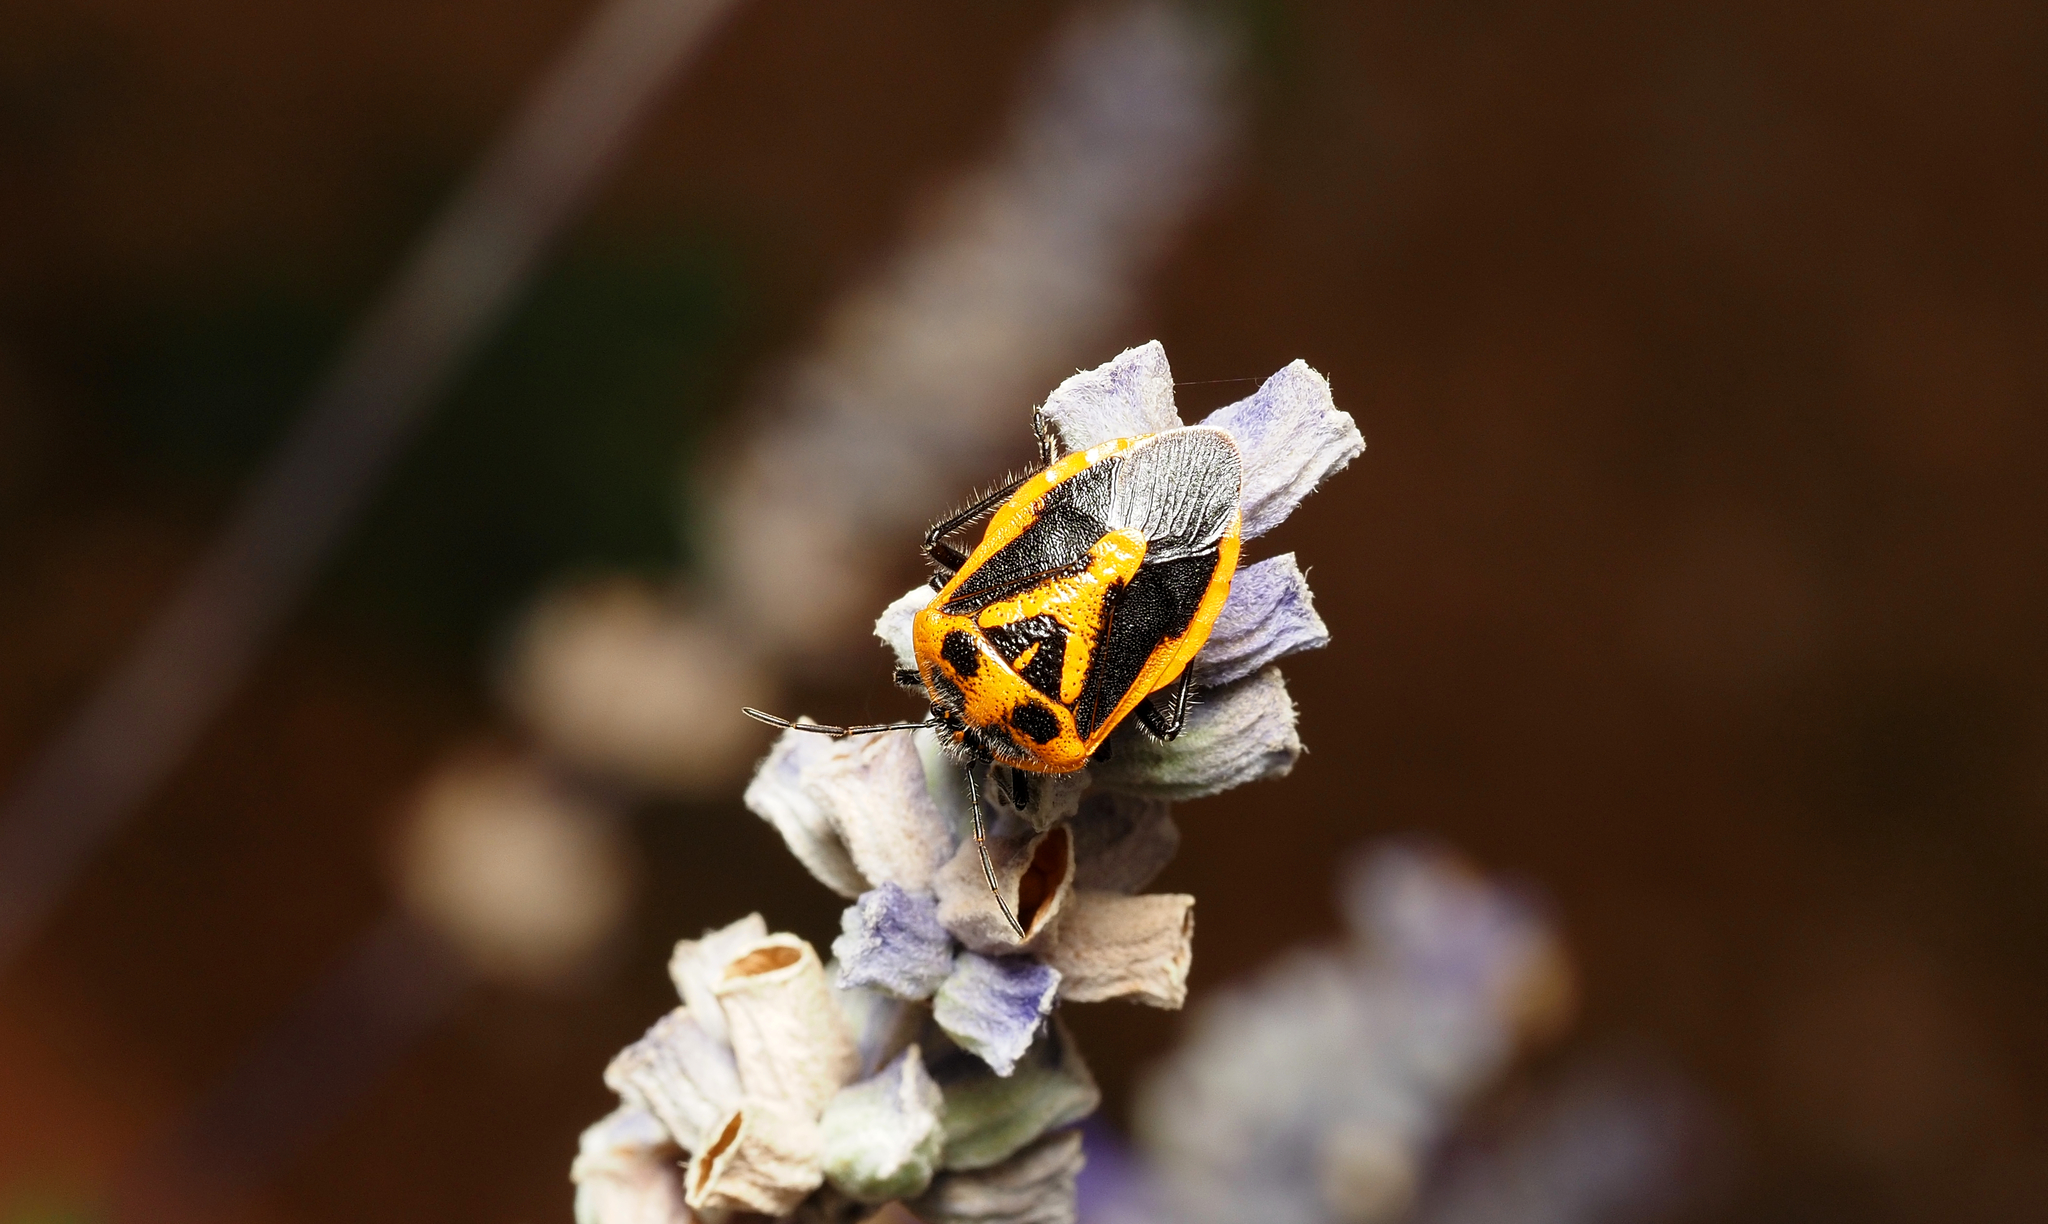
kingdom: Animalia
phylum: Arthropoda
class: Insecta
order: Hemiptera
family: Pentatomidae
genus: Agonoscelis
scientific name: Agonoscelis rutila
